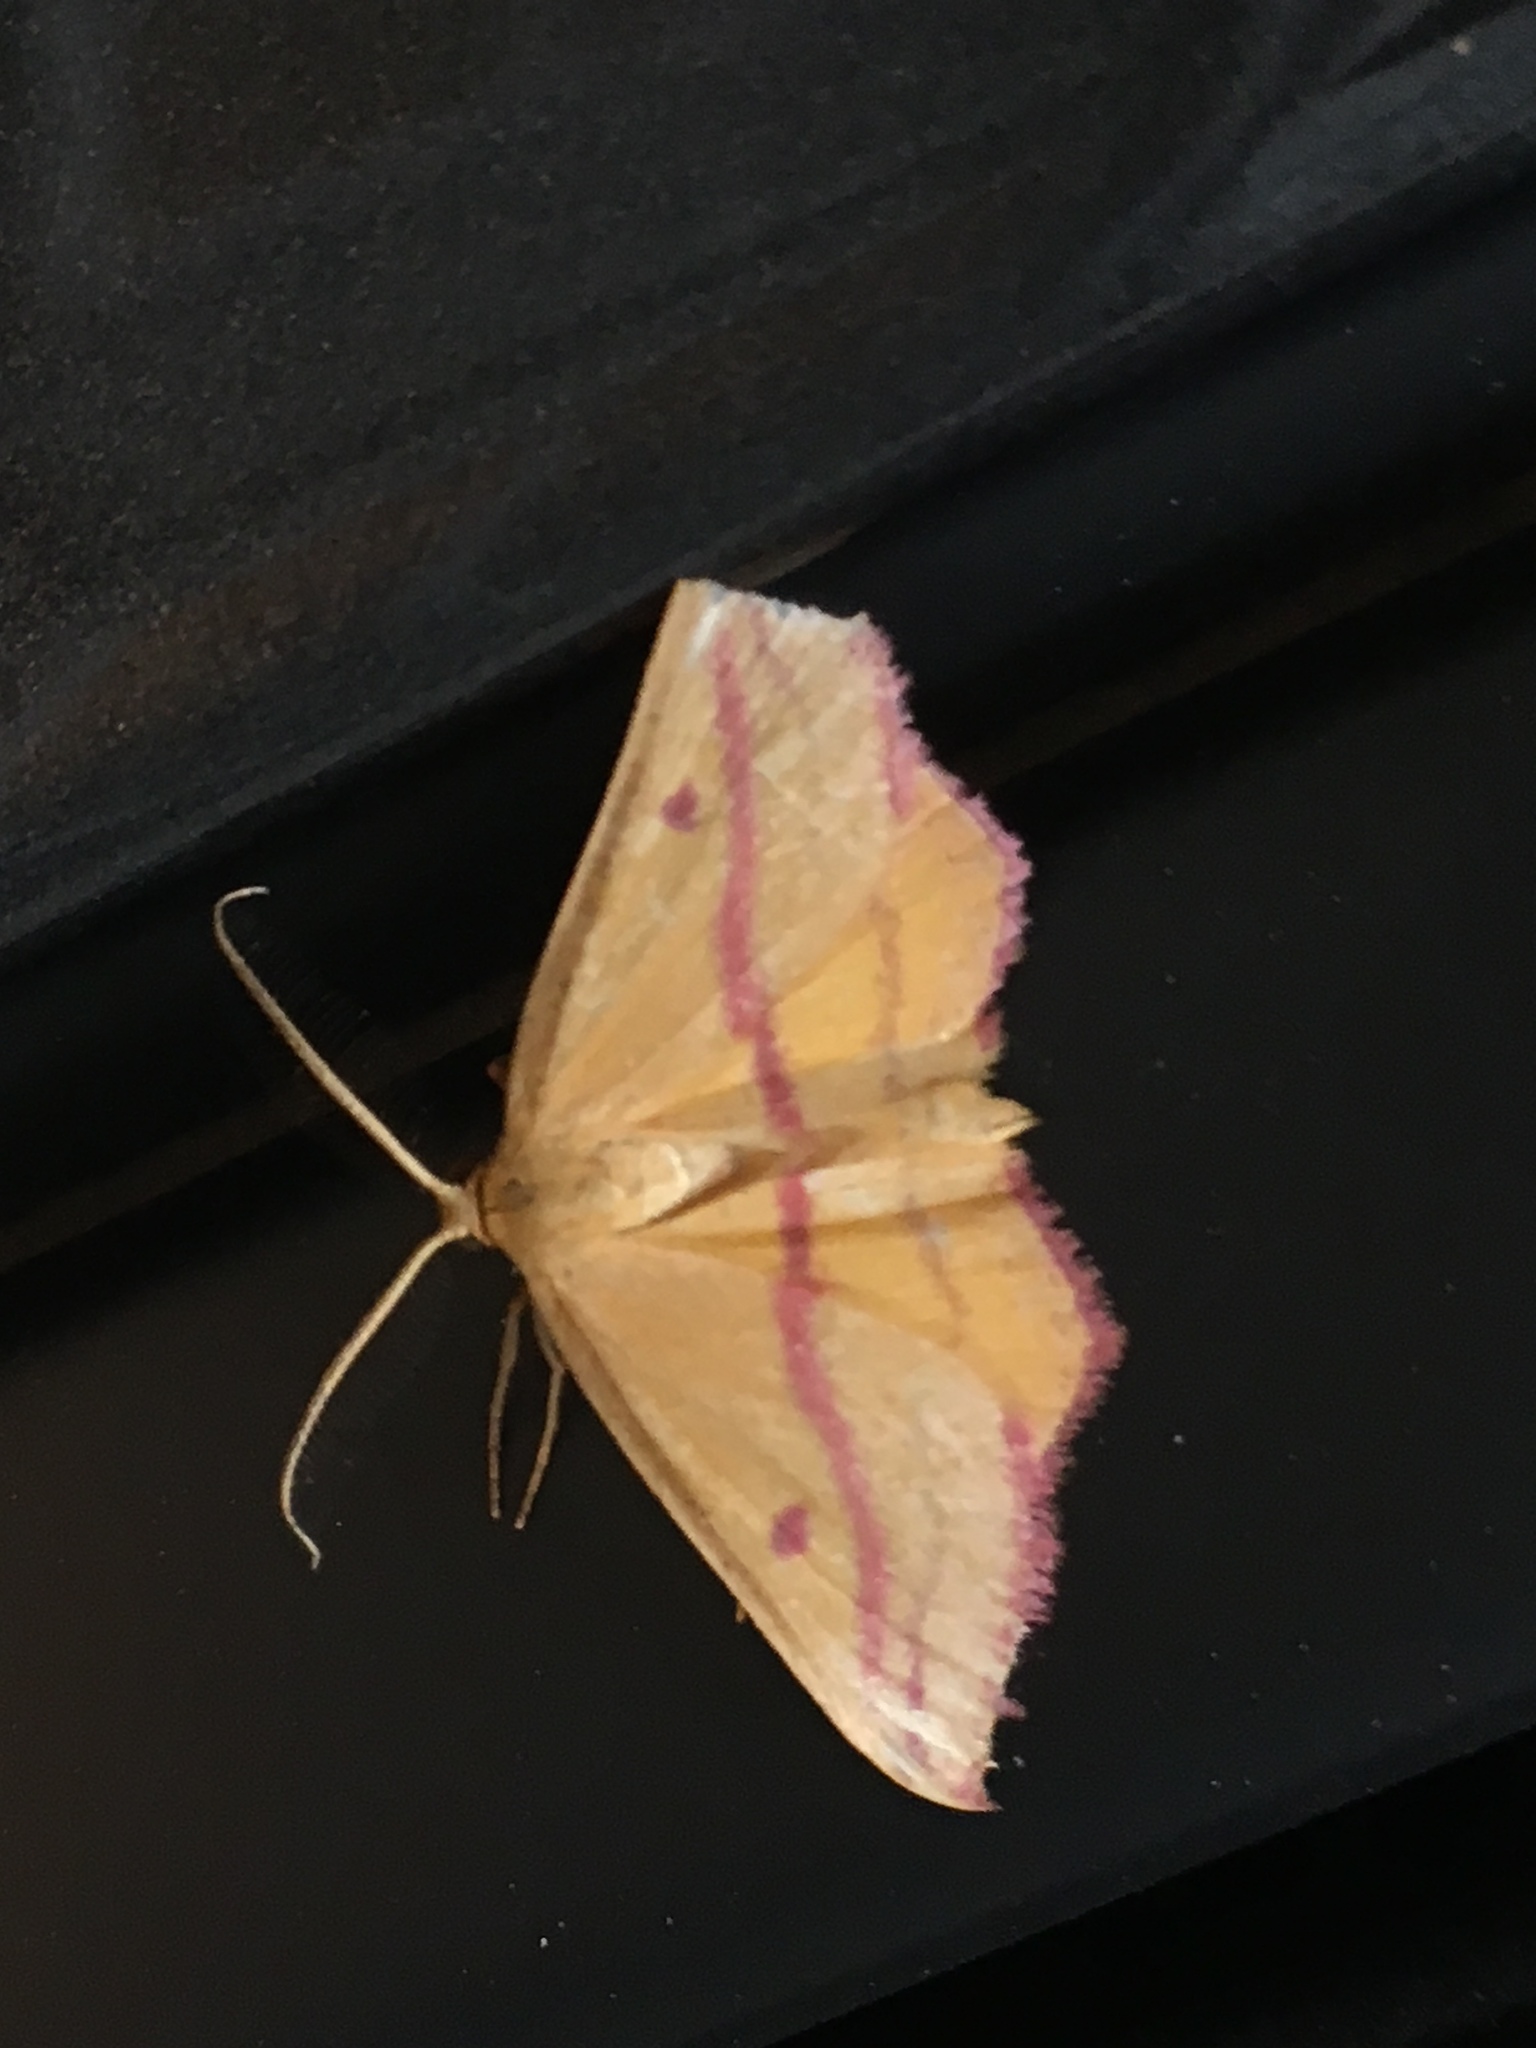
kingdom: Animalia
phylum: Arthropoda
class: Insecta
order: Lepidoptera
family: Geometridae
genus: Haematopis
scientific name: Haematopis grataria
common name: Chickweed geometer
